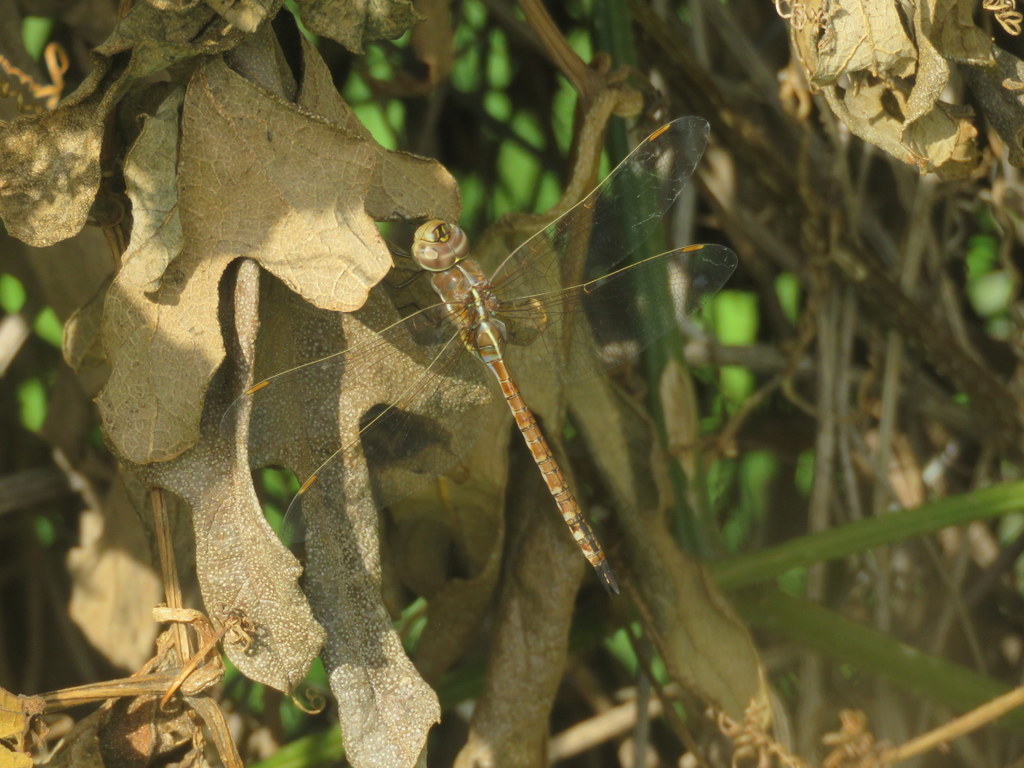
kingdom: Animalia
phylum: Arthropoda
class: Insecta
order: Odonata
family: Aeshnidae
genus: Rhionaeschna
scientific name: Rhionaeschna bonariensis
